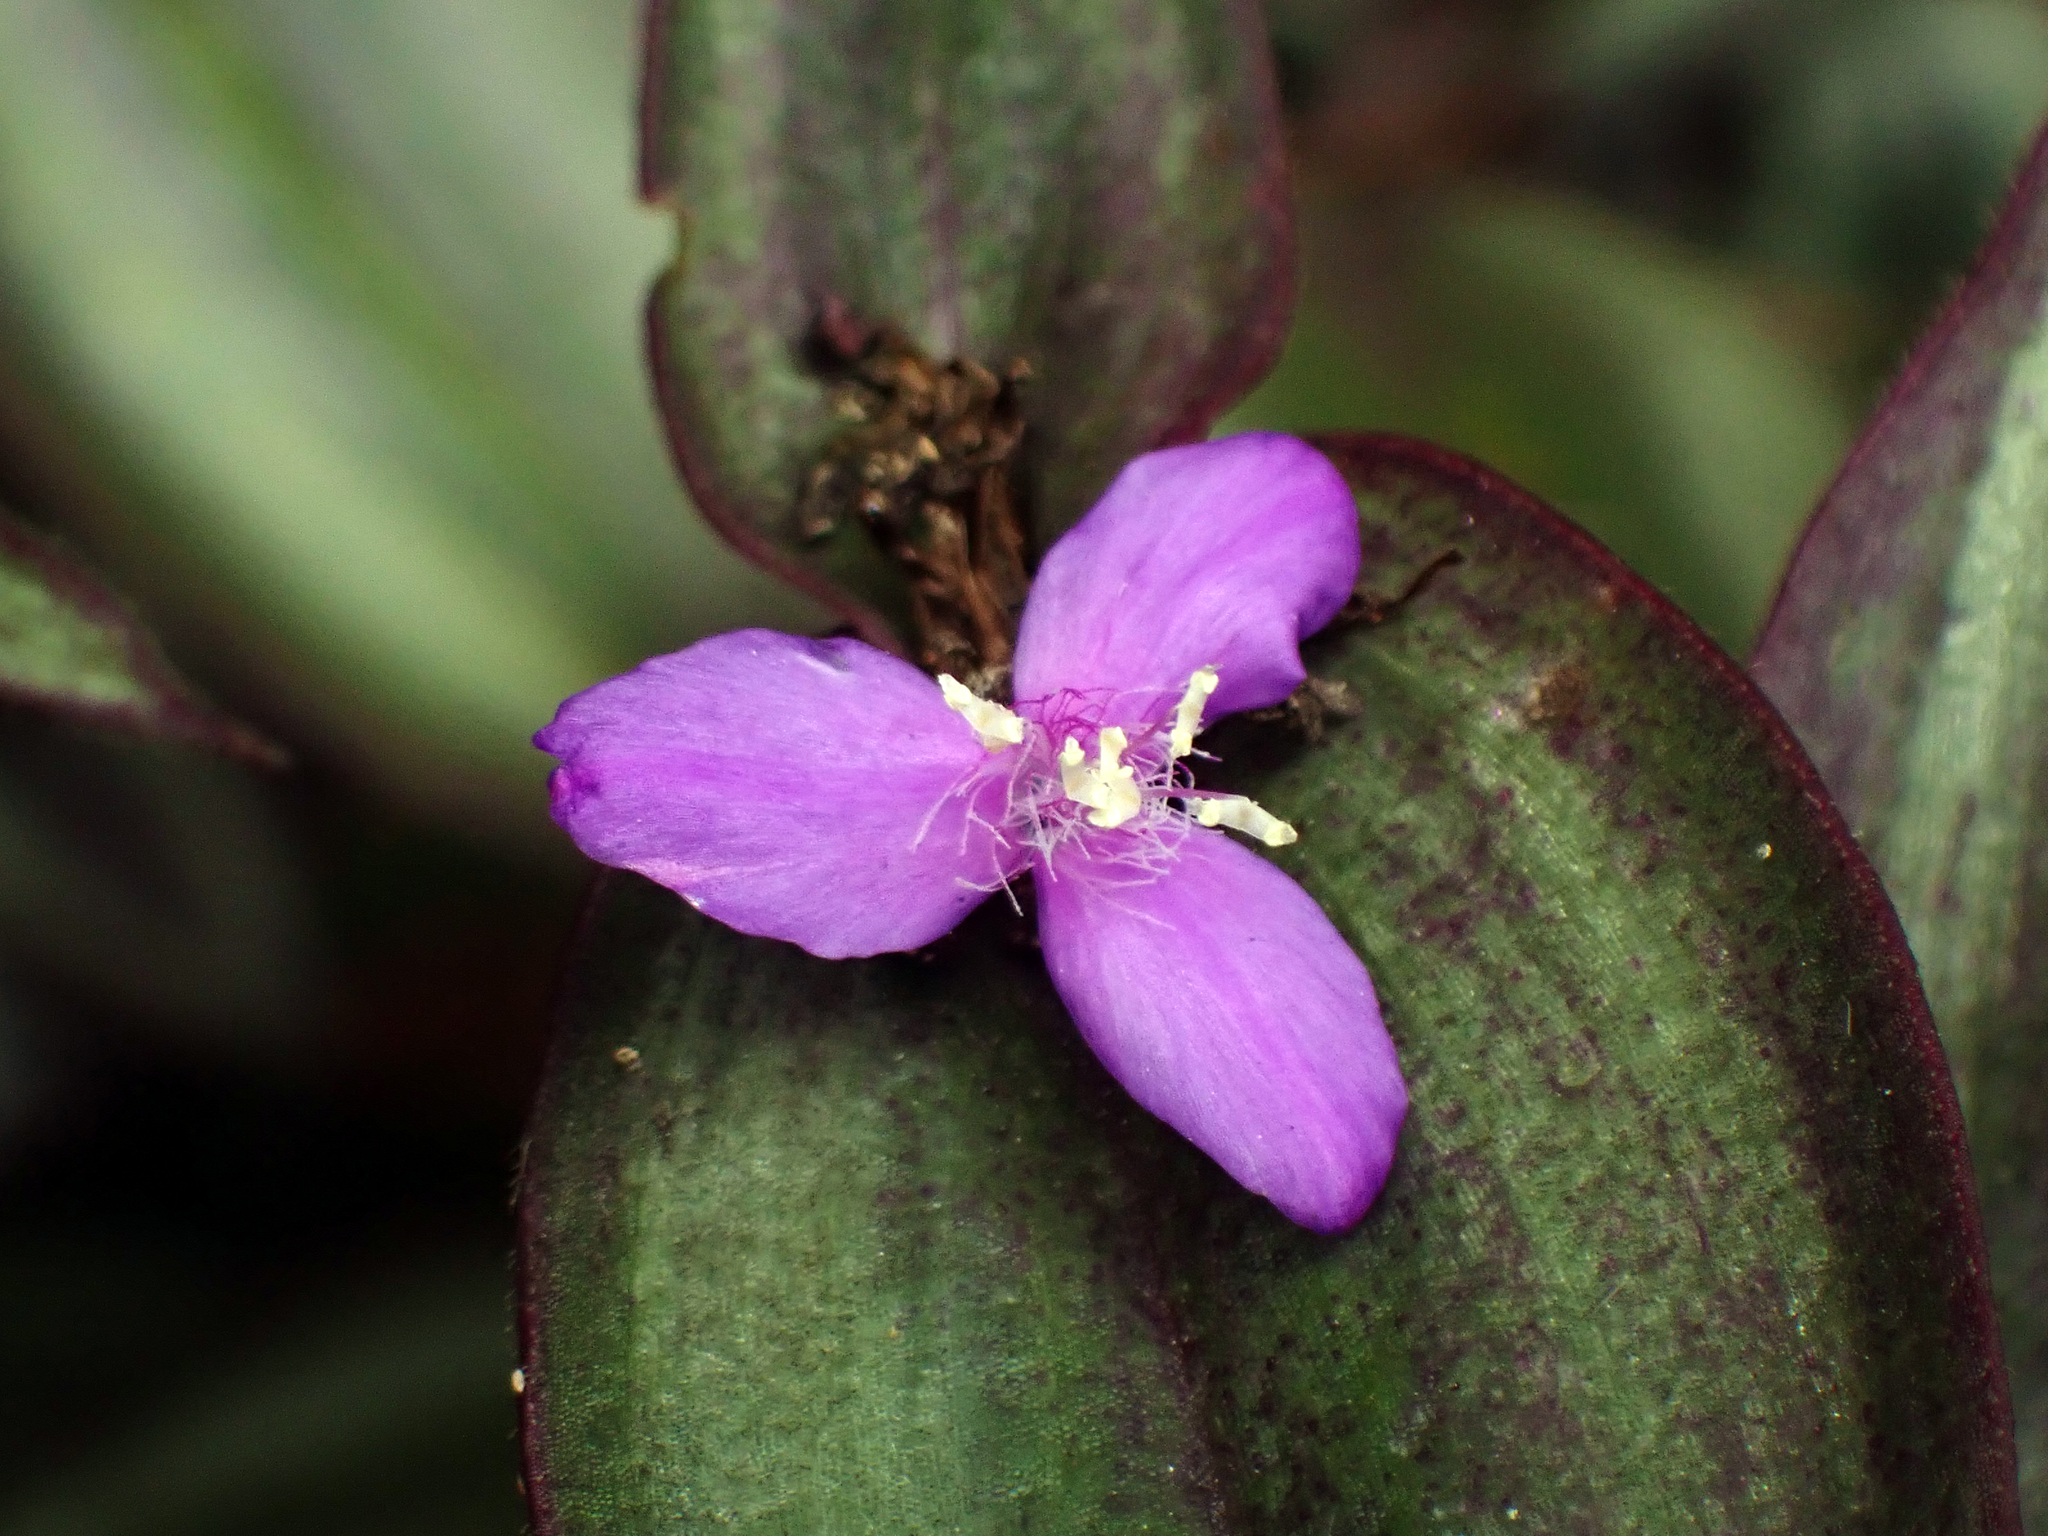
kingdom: Plantae
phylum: Tracheophyta
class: Liliopsida
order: Commelinales
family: Commelinaceae
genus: Tradescantia
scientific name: Tradescantia zebrina
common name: Inchplant
